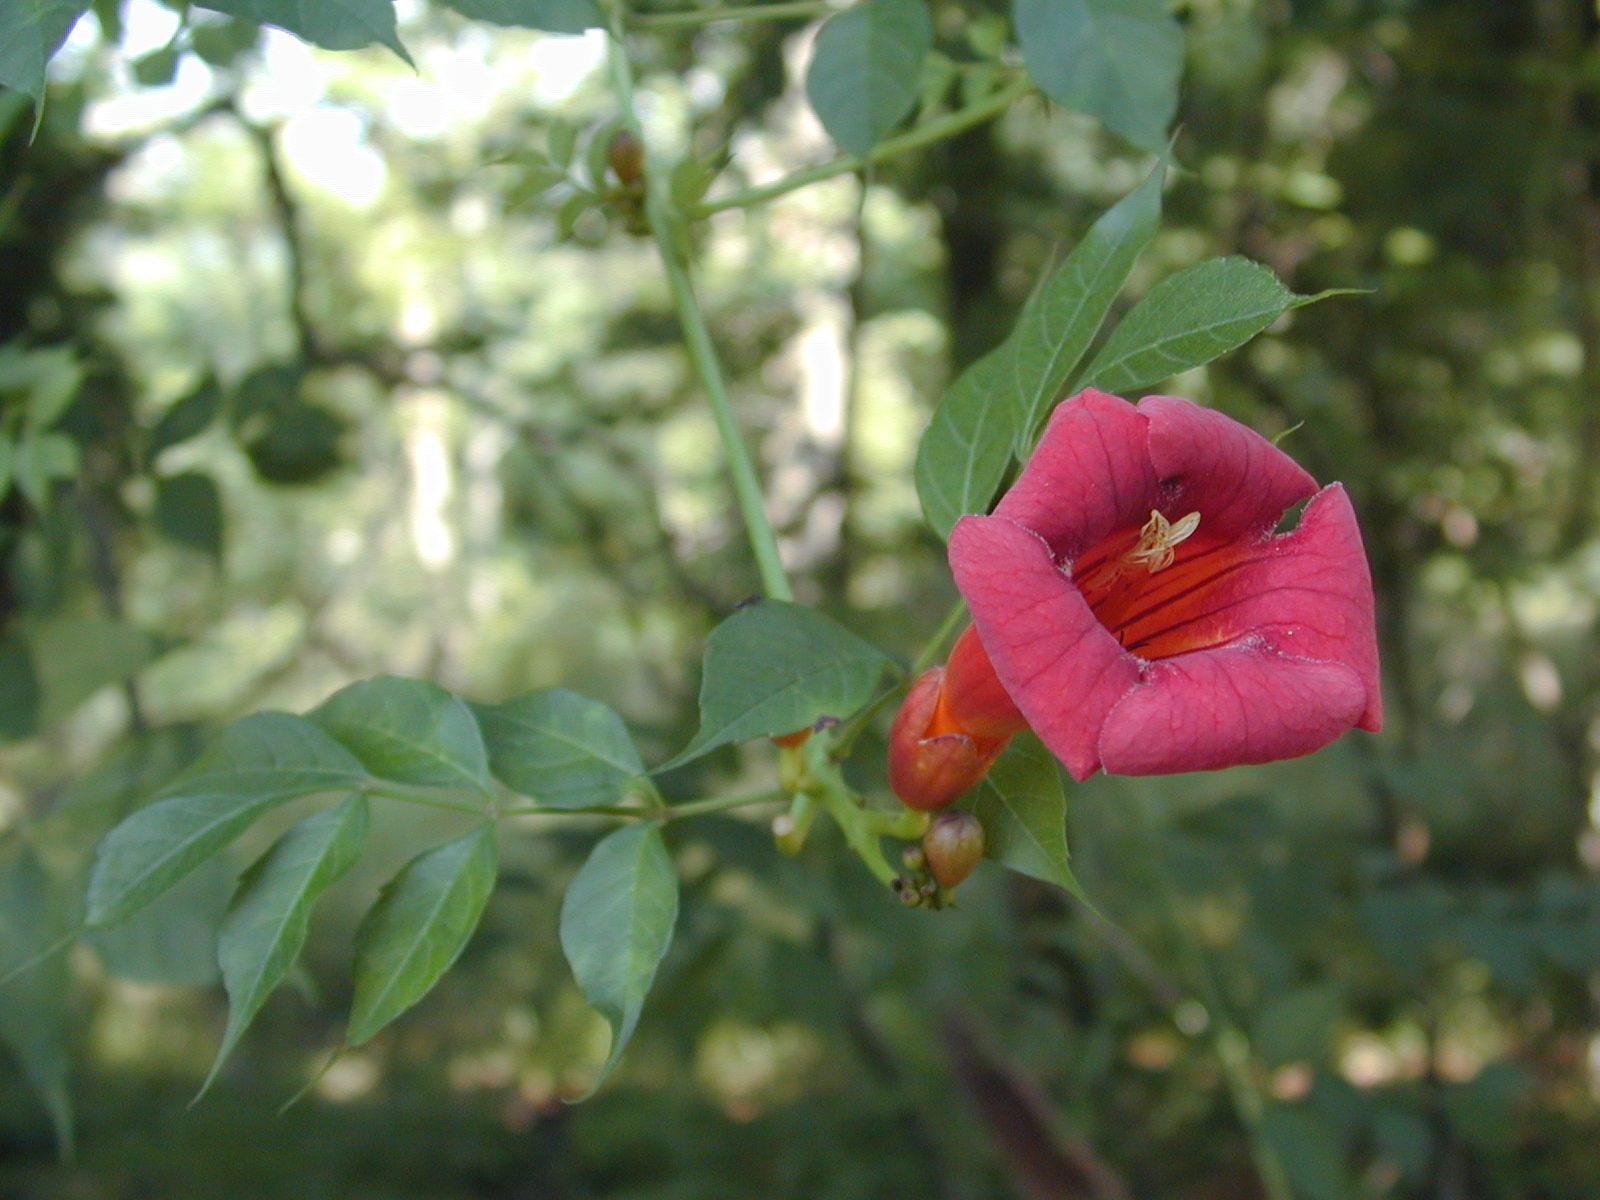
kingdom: Plantae
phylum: Tracheophyta
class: Magnoliopsida
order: Lamiales
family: Bignoniaceae
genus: Campsis
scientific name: Campsis radicans
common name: Trumpet-creeper
